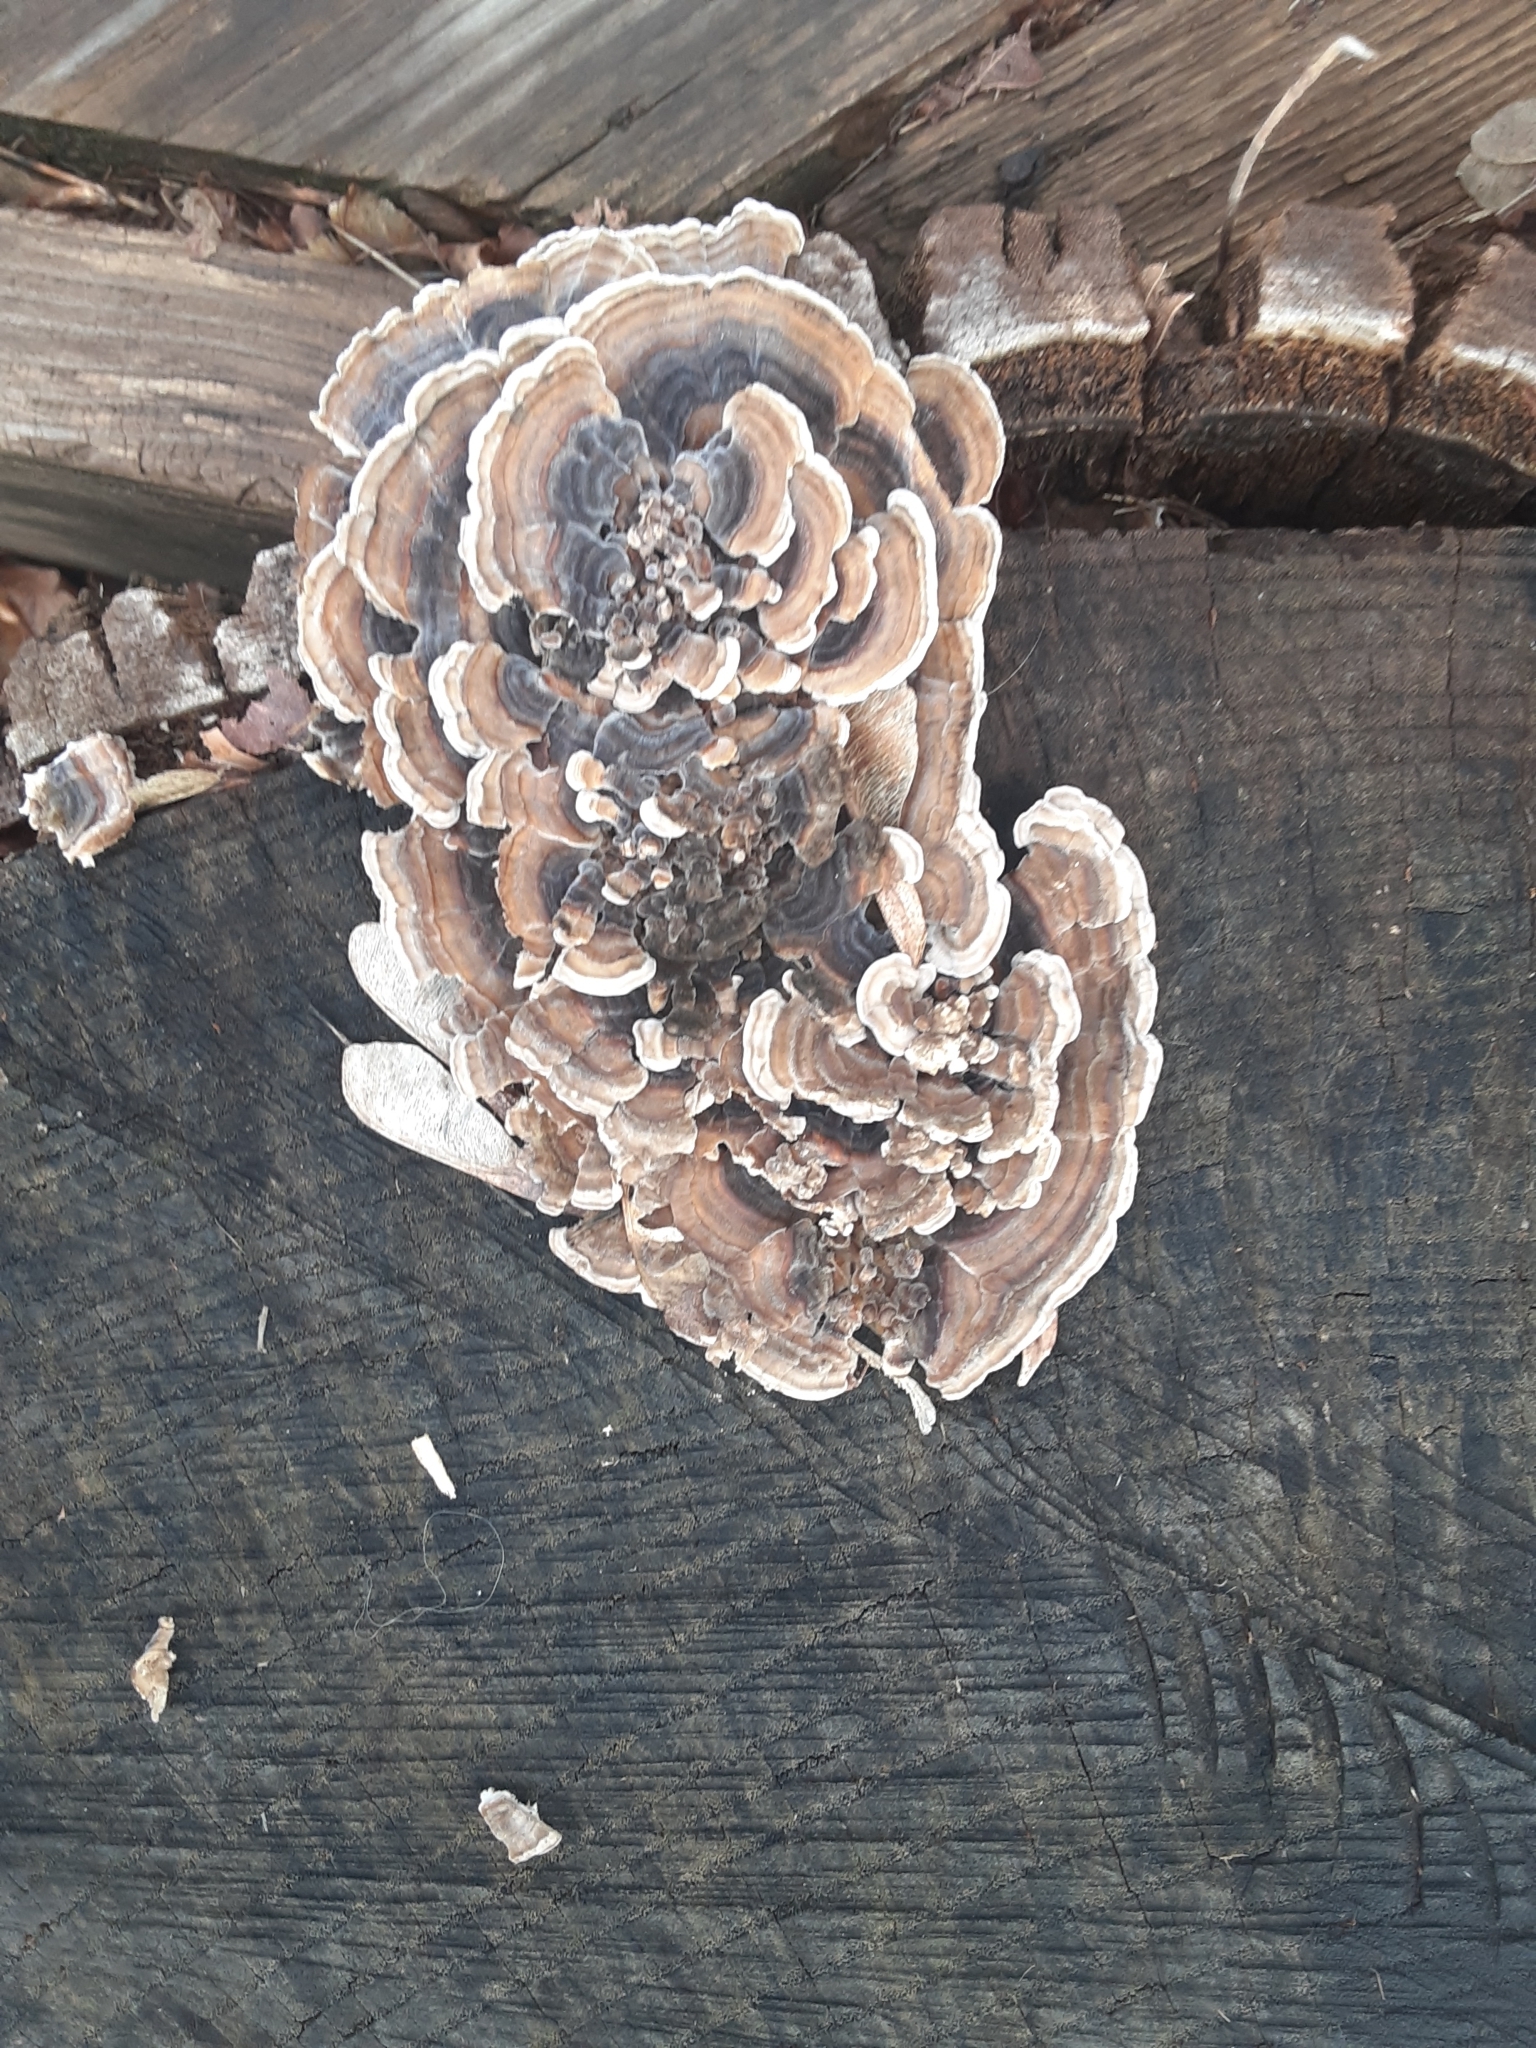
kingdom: Fungi
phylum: Basidiomycota
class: Agaricomycetes
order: Polyporales
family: Polyporaceae
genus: Trametes
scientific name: Trametes versicolor
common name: Turkeytail
